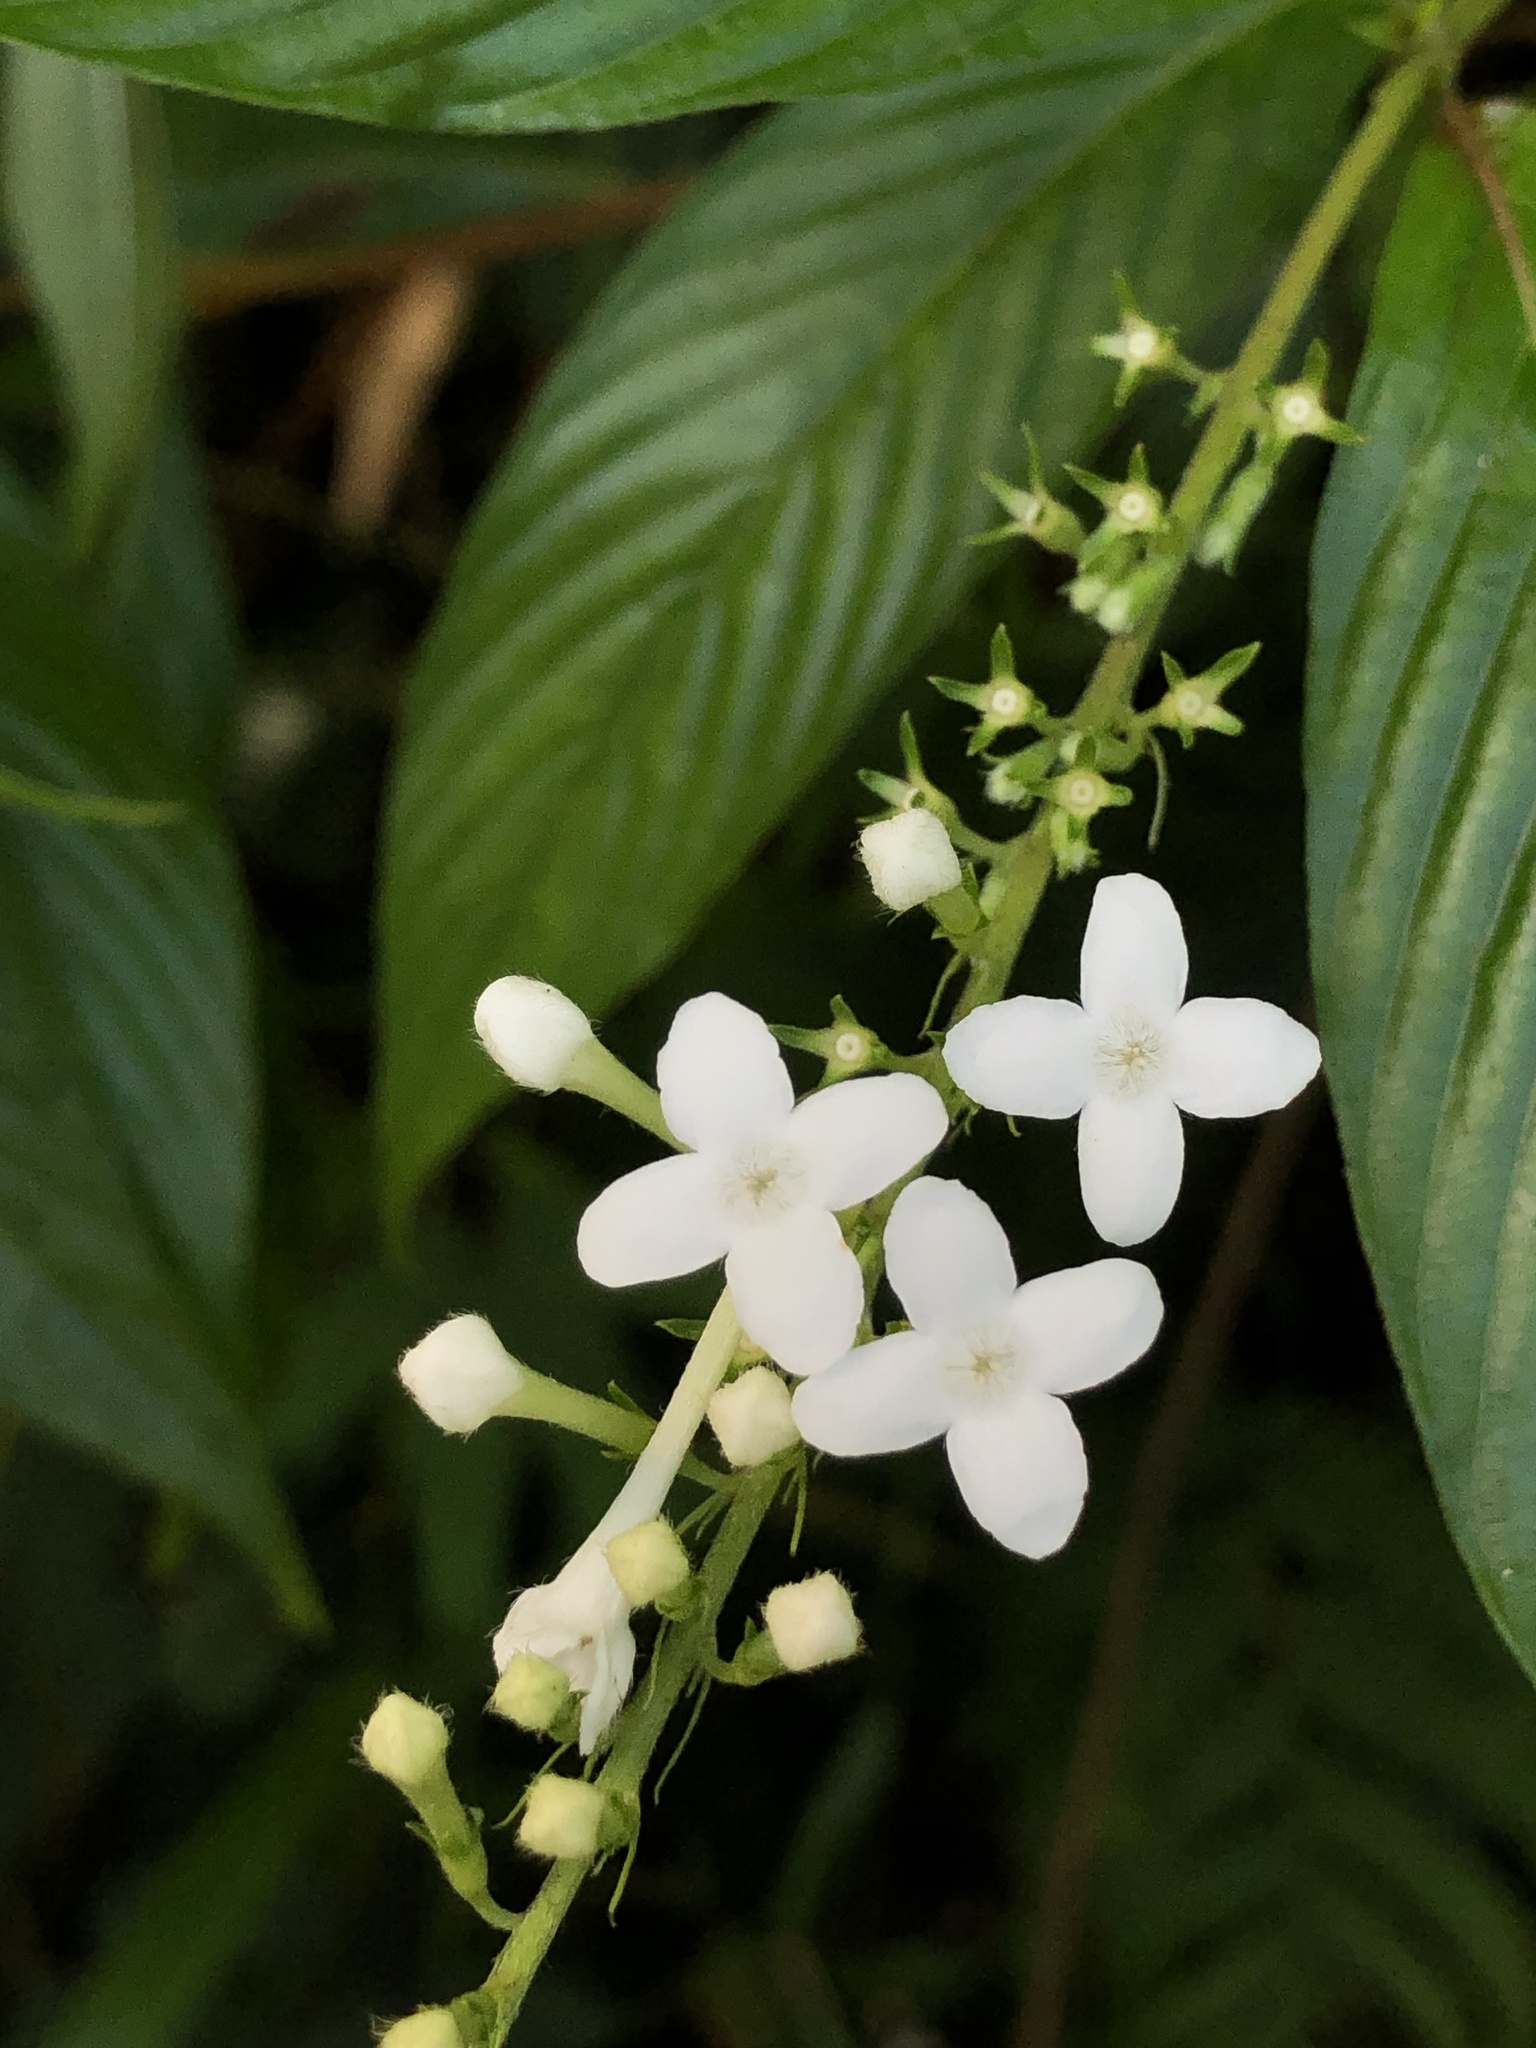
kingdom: Plantae
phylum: Tracheophyta
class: Magnoliopsida
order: Gentianales
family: Rubiaceae
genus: Gonzalagunia
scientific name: Gonzalagunia hirsuta
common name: Mata de mariposa
